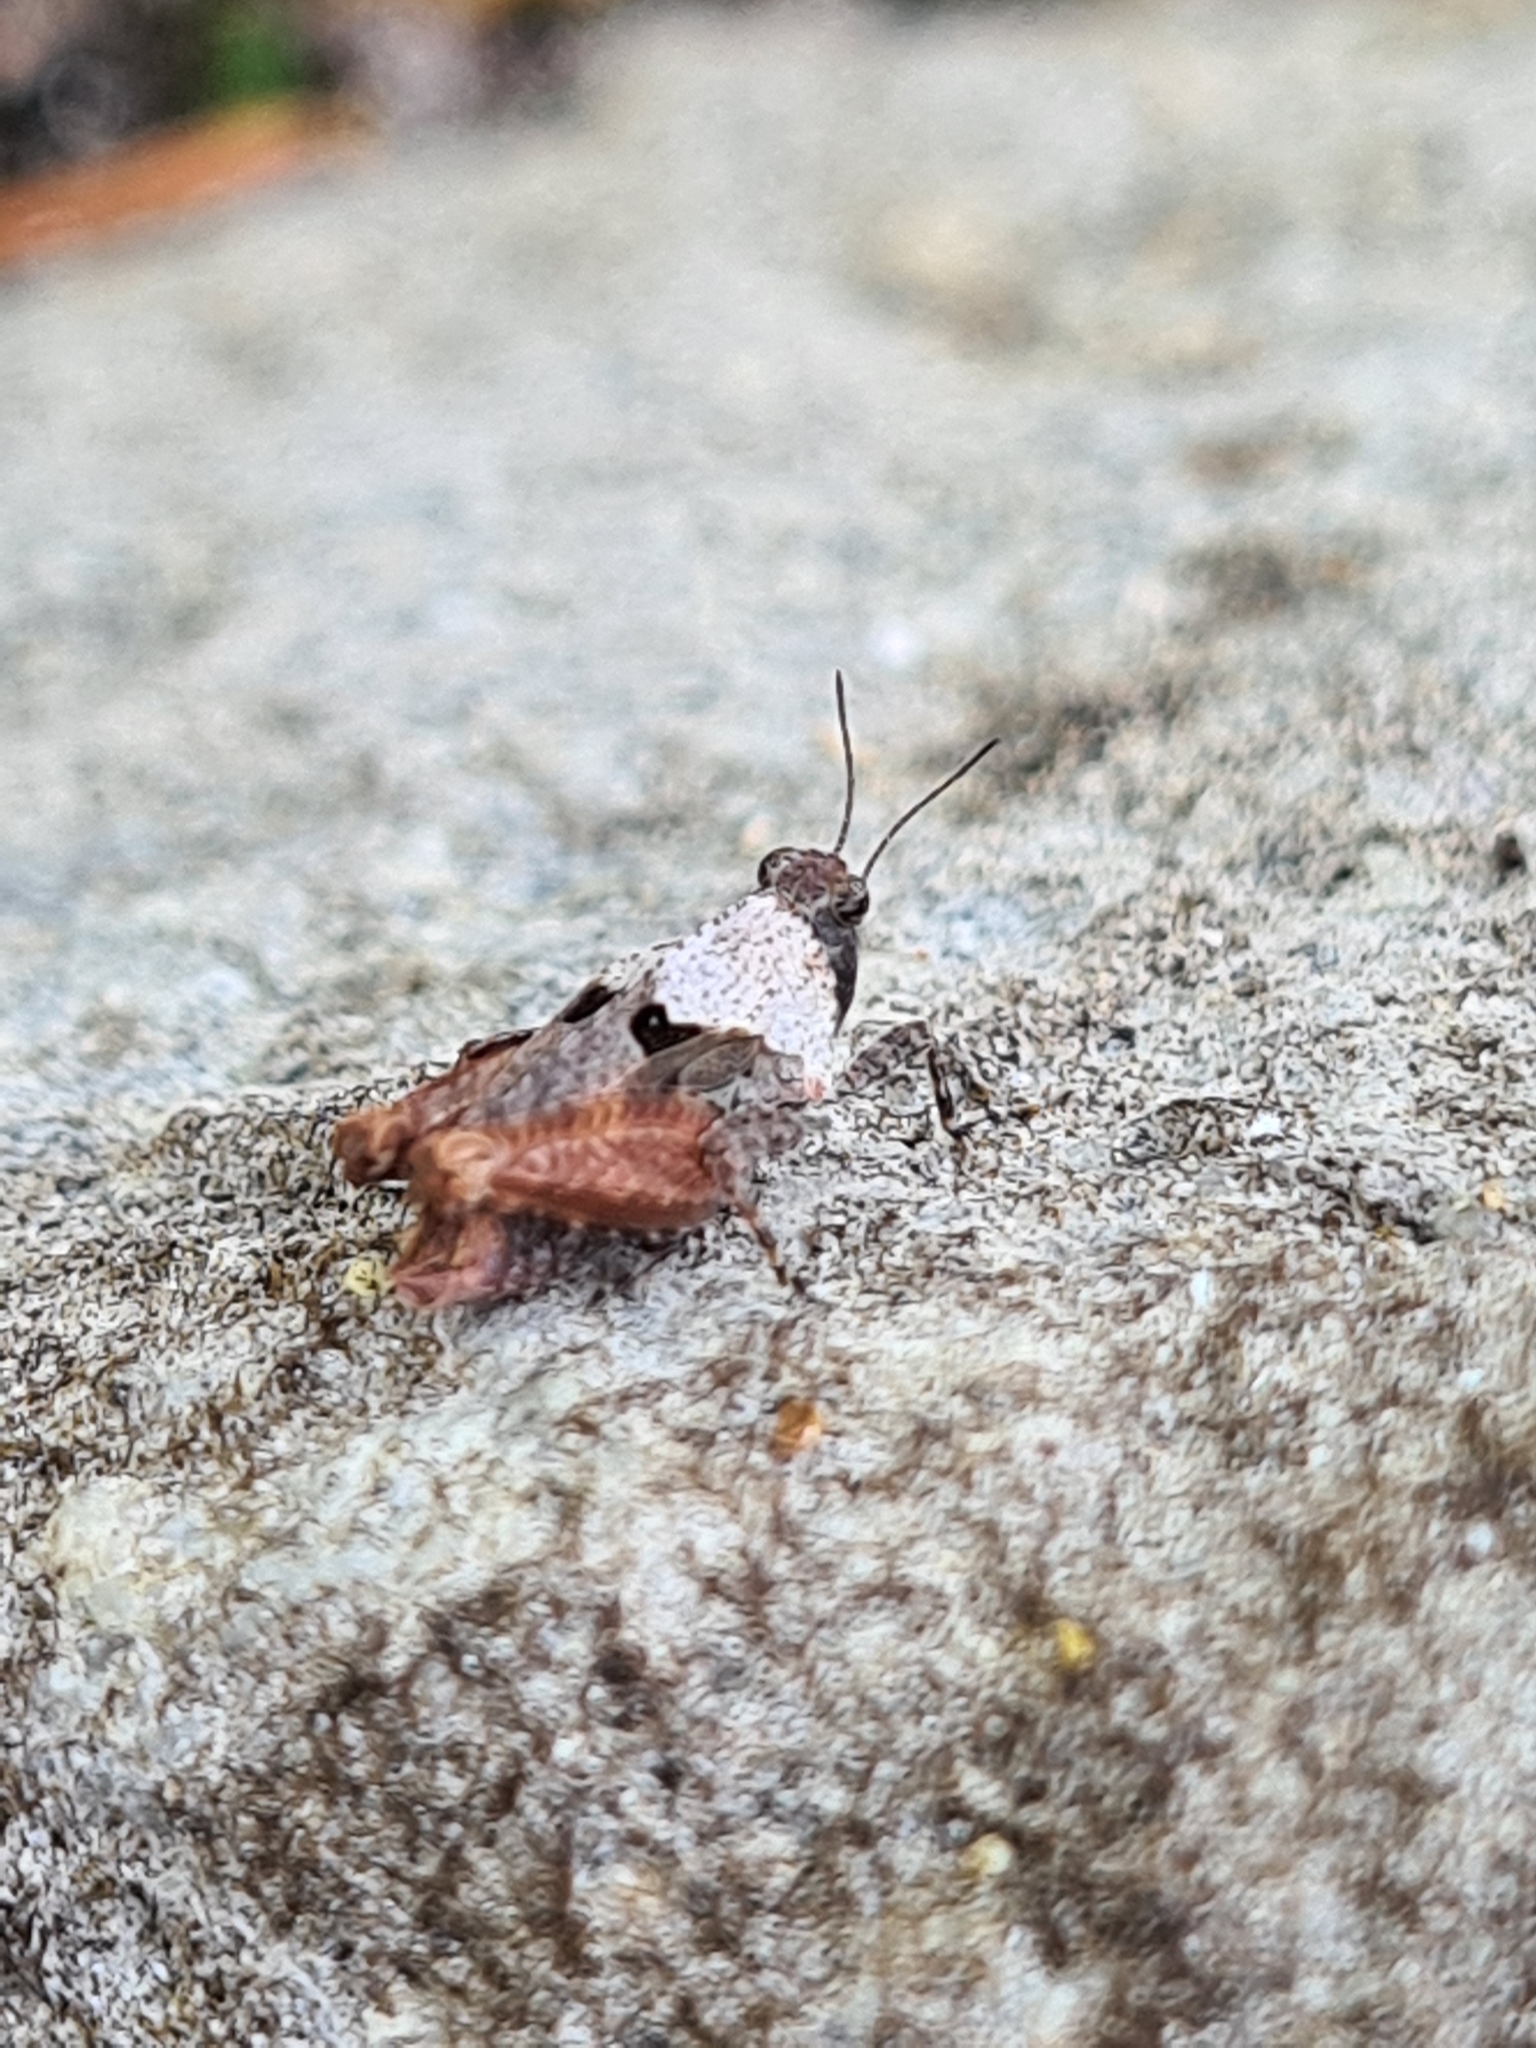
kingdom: Animalia
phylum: Arthropoda
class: Insecta
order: Orthoptera
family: Tetrigidae
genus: Tetrix
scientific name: Tetrix tenuicornis
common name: Long-horned groundhopper
